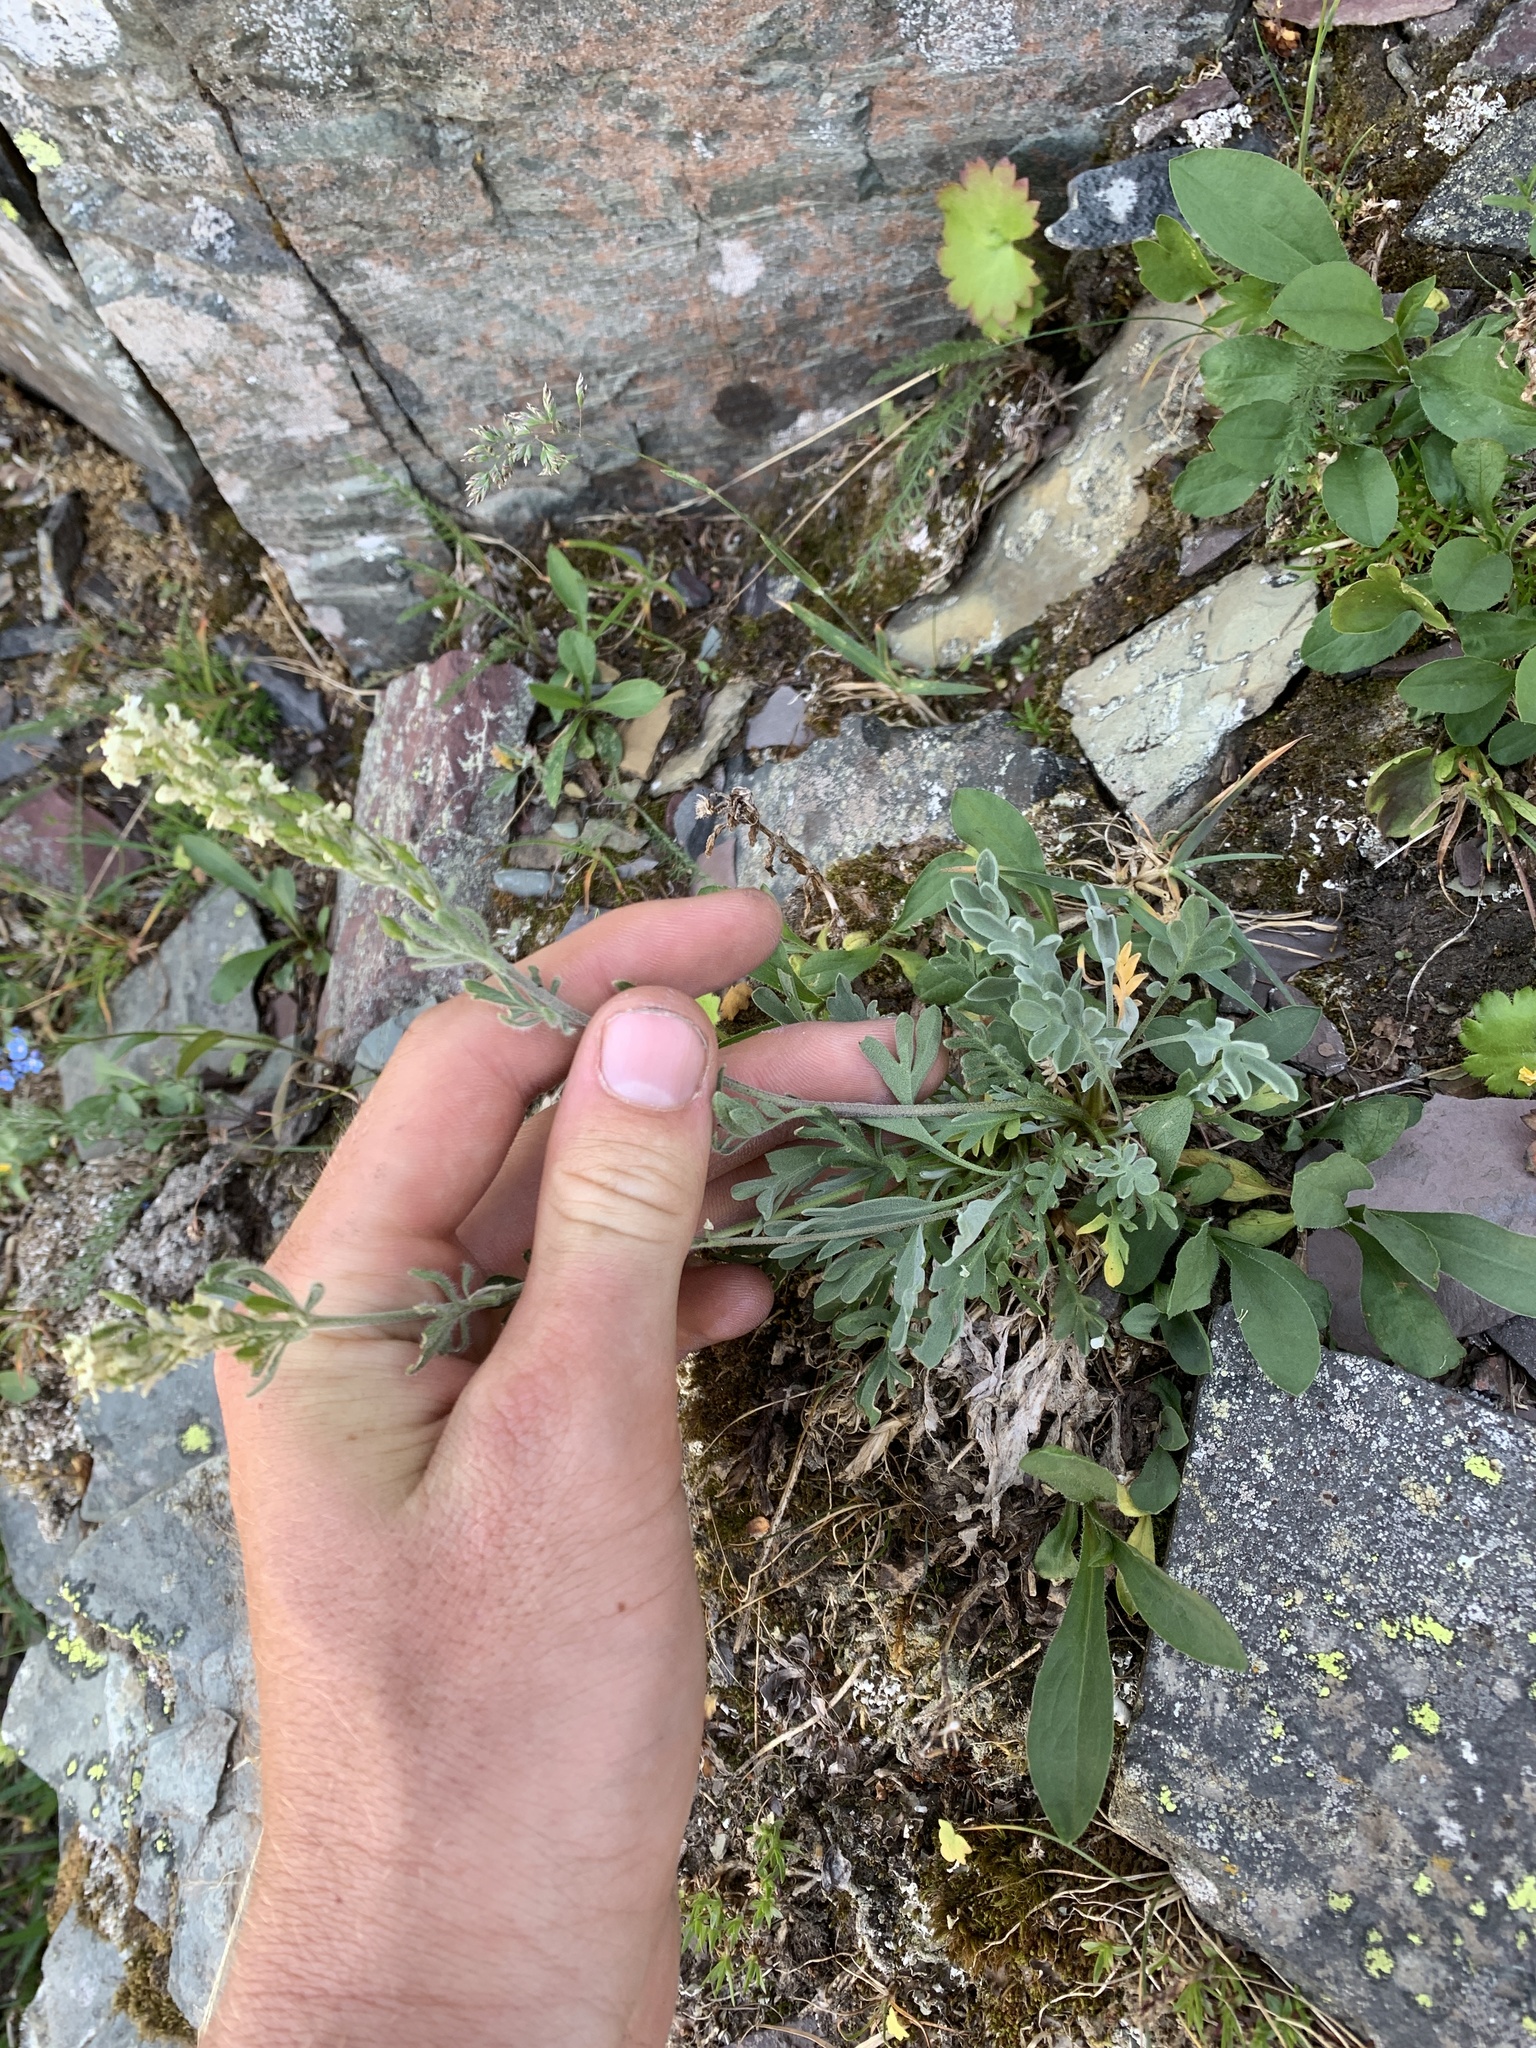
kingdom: Plantae
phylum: Tracheophyta
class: Magnoliopsida
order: Brassicales
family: Brassicaceae
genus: Smelowskia
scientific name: Smelowskia americana
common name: American false candytuft
